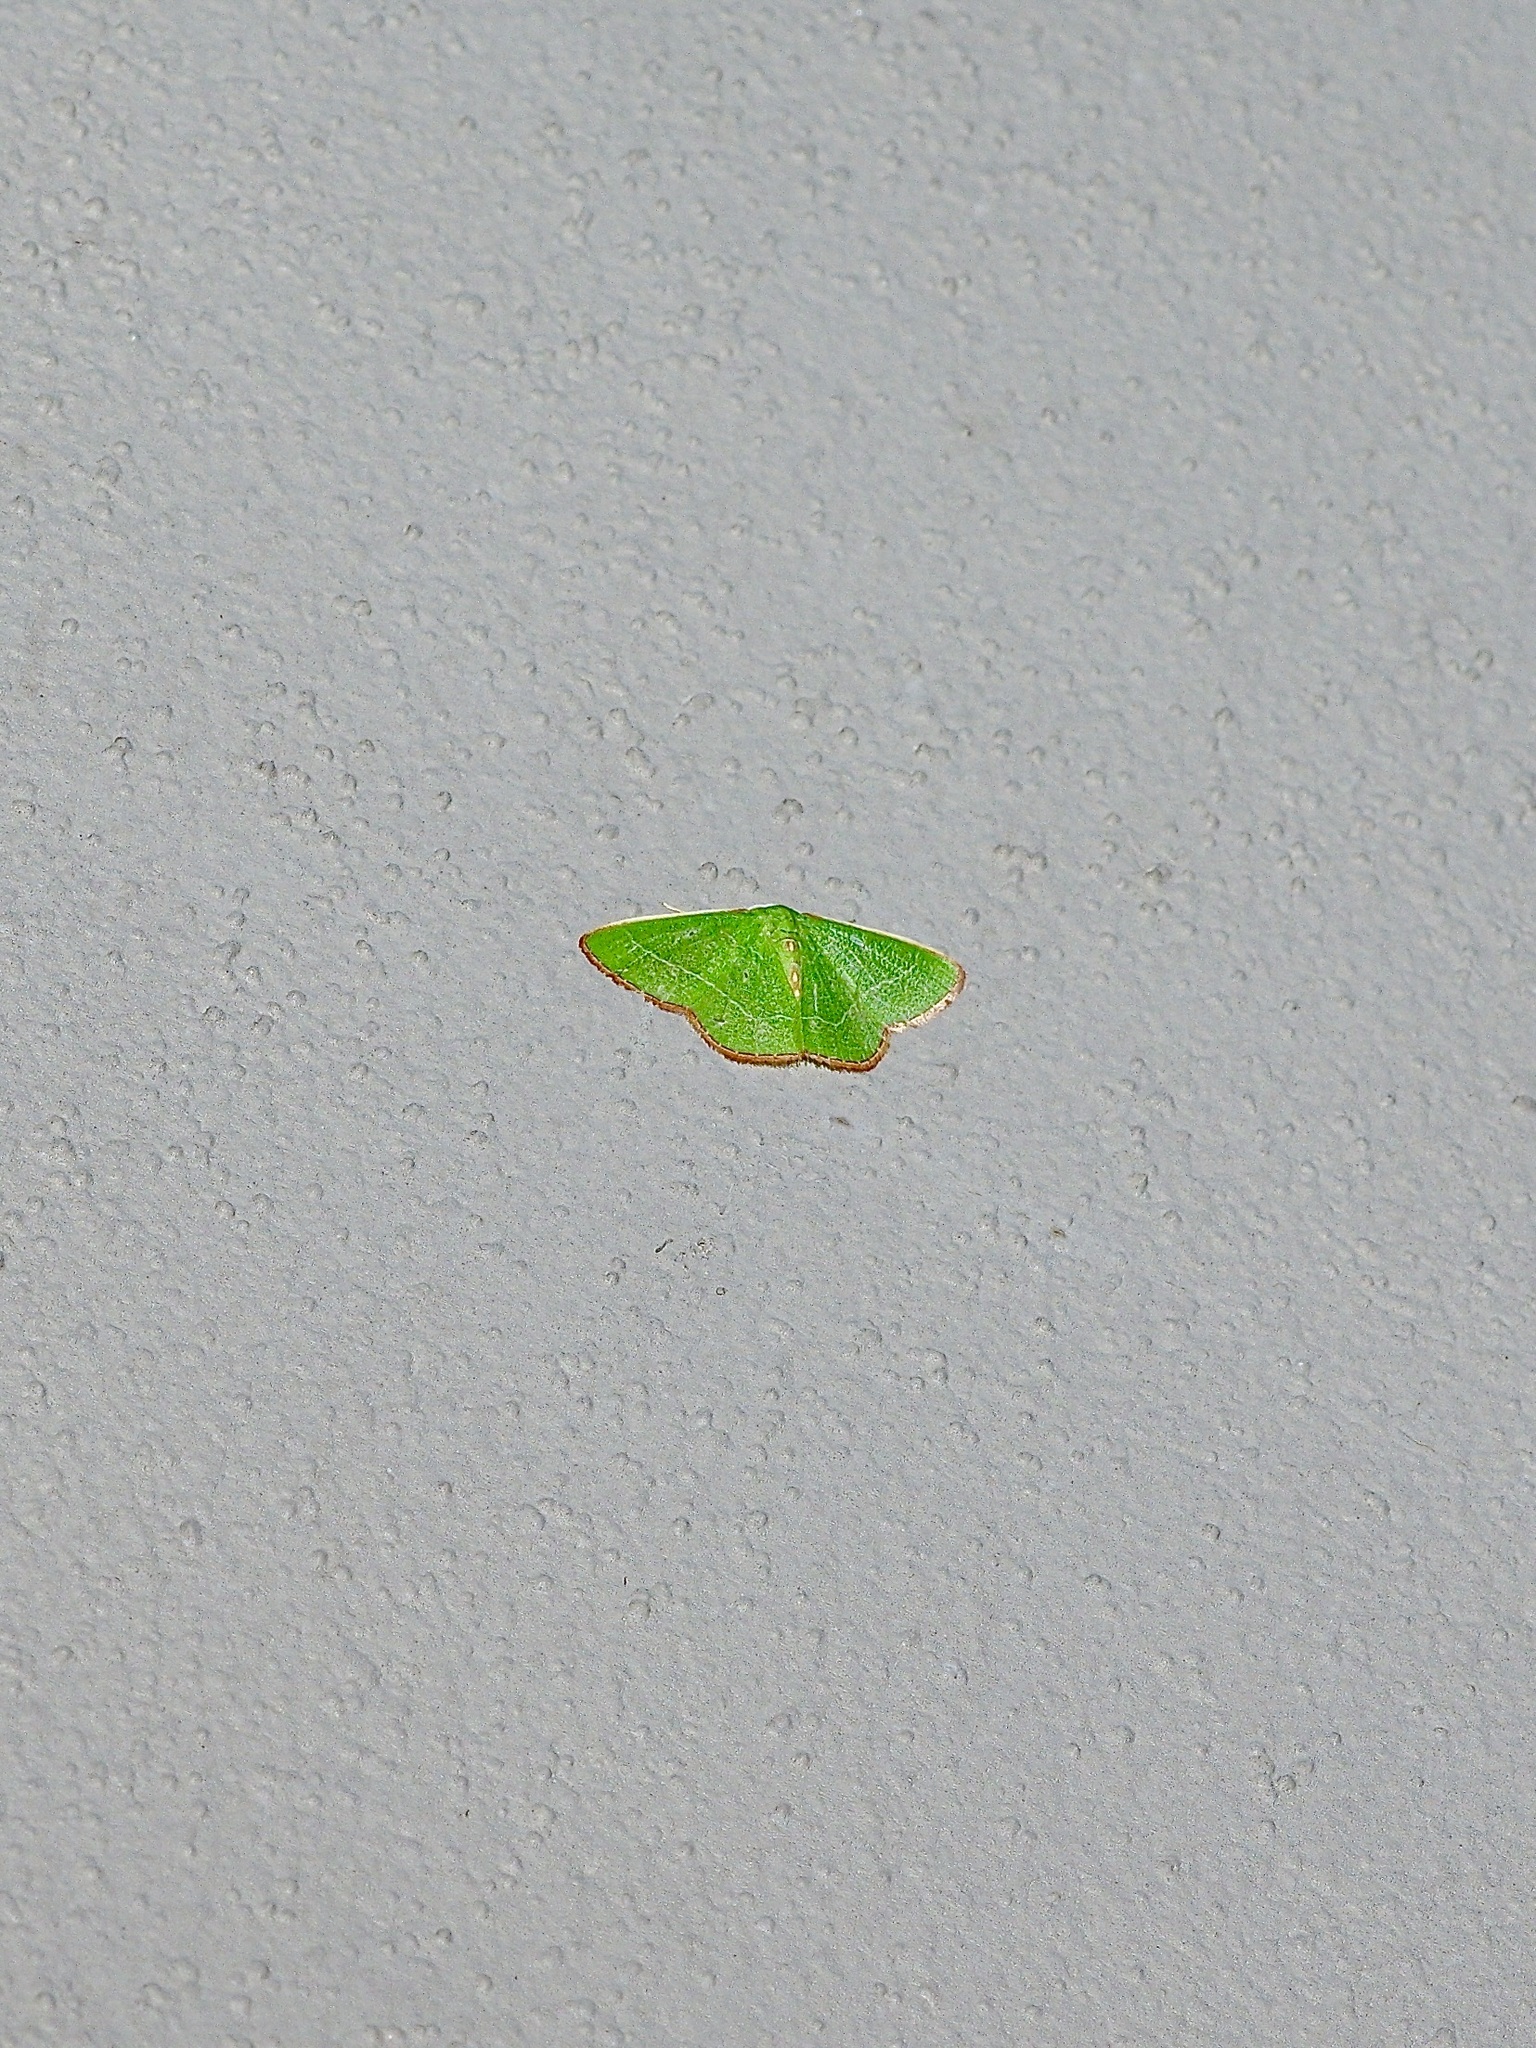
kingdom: Animalia
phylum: Arthropoda
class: Insecta
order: Lepidoptera
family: Geometridae
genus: Nemoria
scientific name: Nemoria bifilata
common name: White-barred emerald moth
